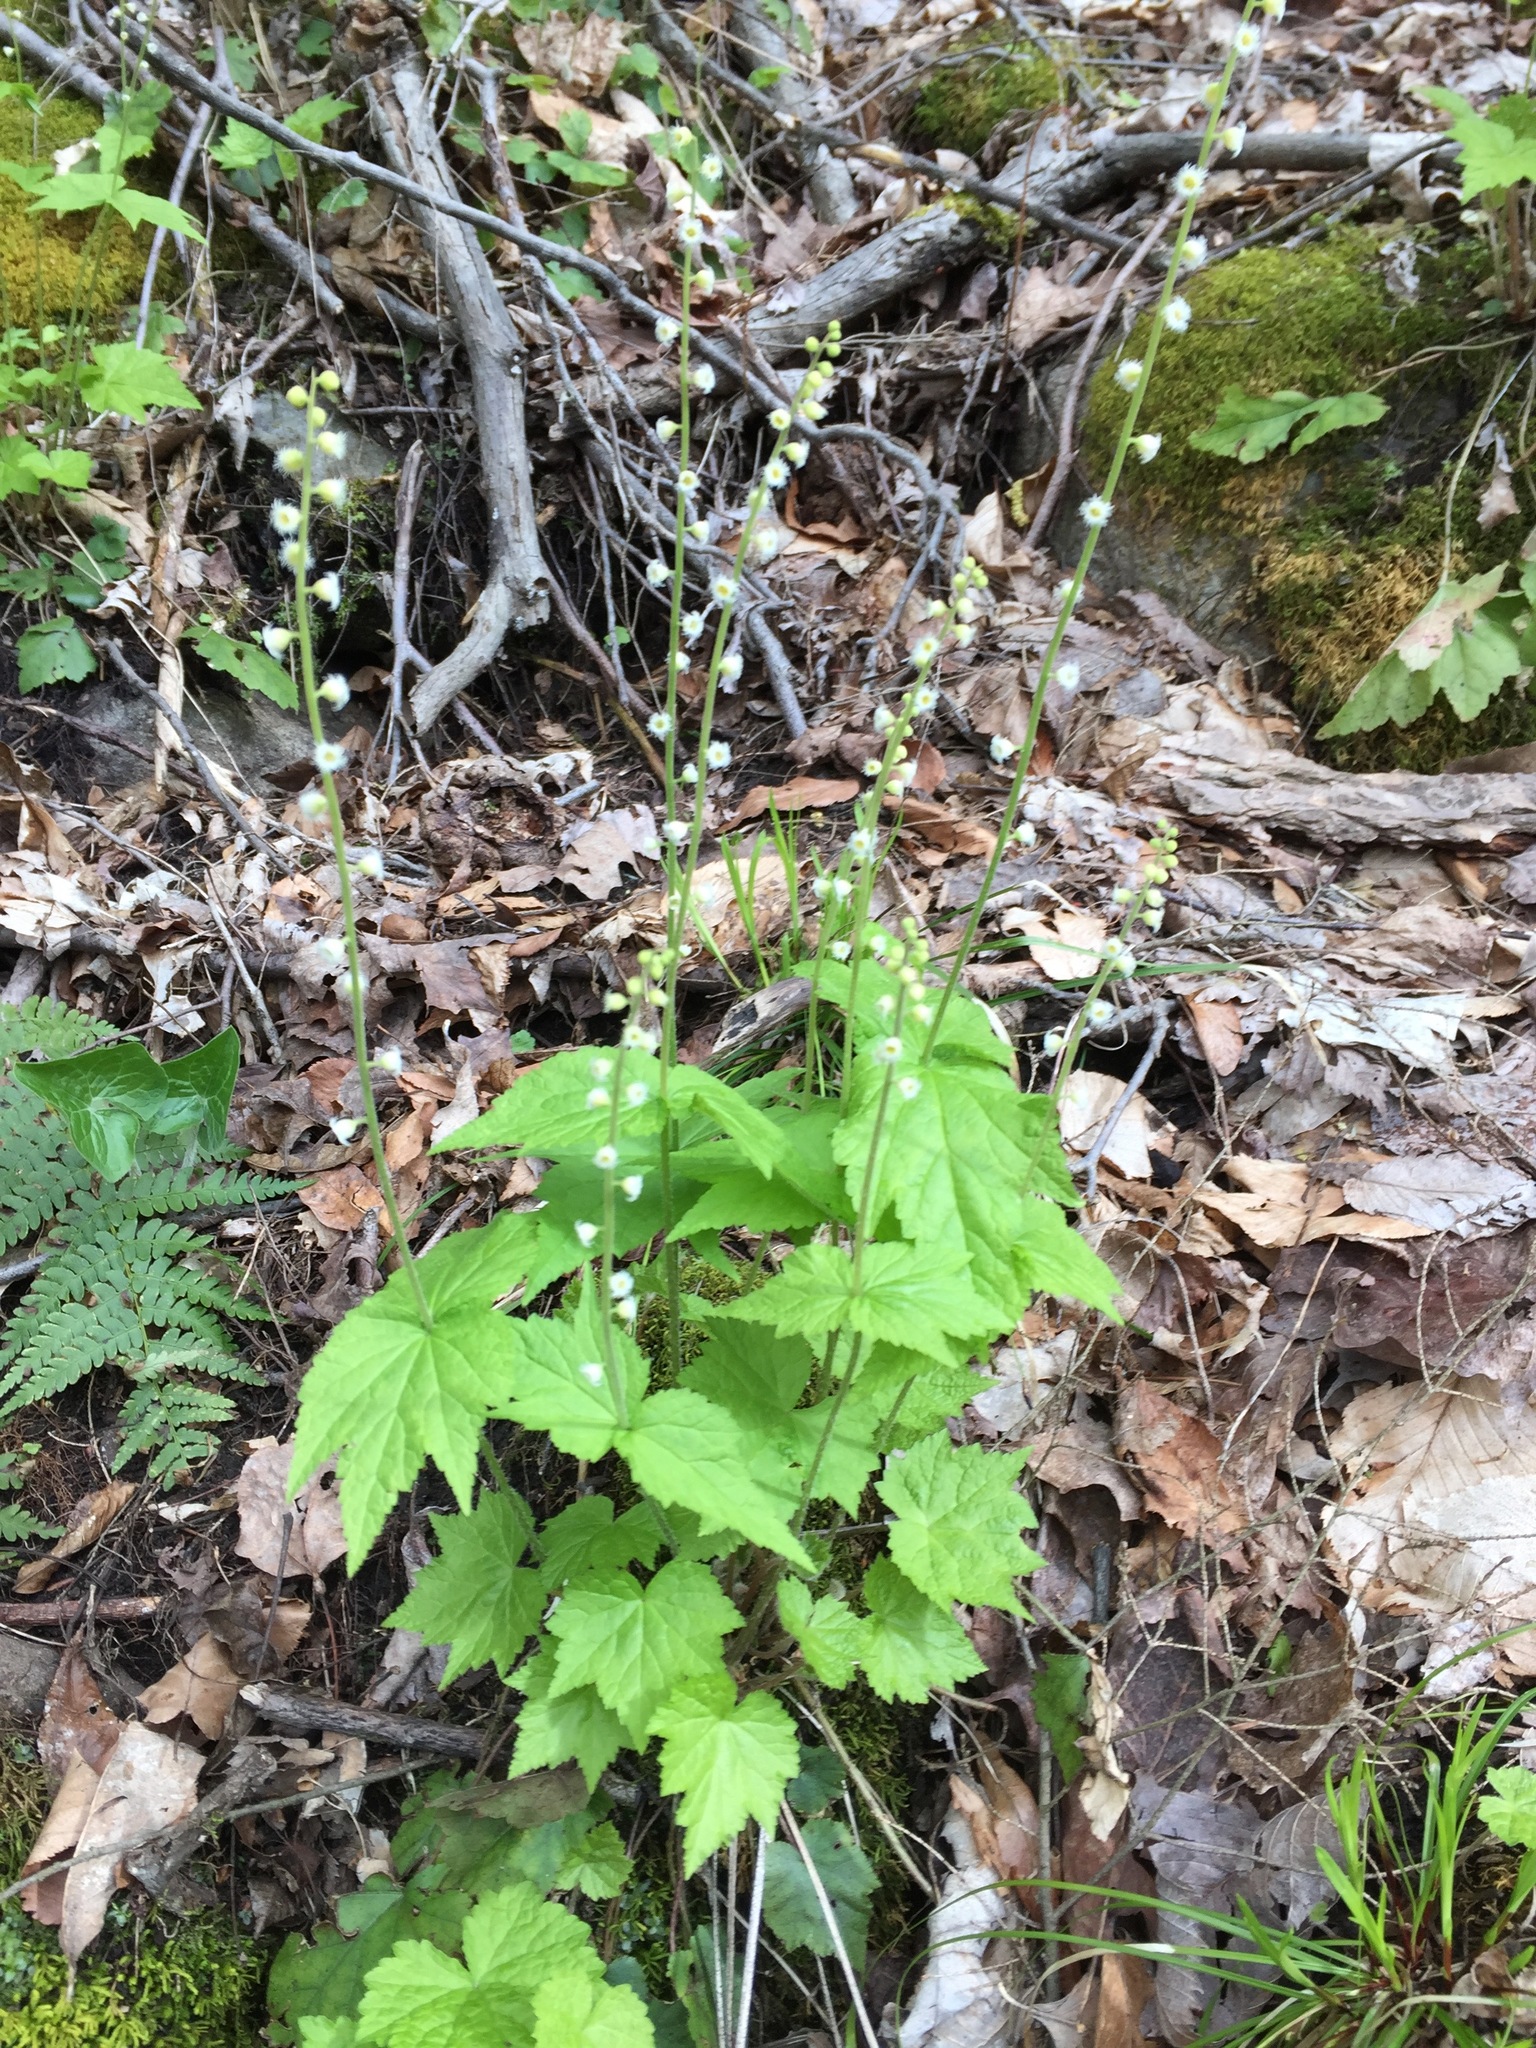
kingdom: Plantae
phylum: Tracheophyta
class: Magnoliopsida
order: Saxifragales
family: Saxifragaceae
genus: Mitella
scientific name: Mitella diphylla
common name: Coolwort
